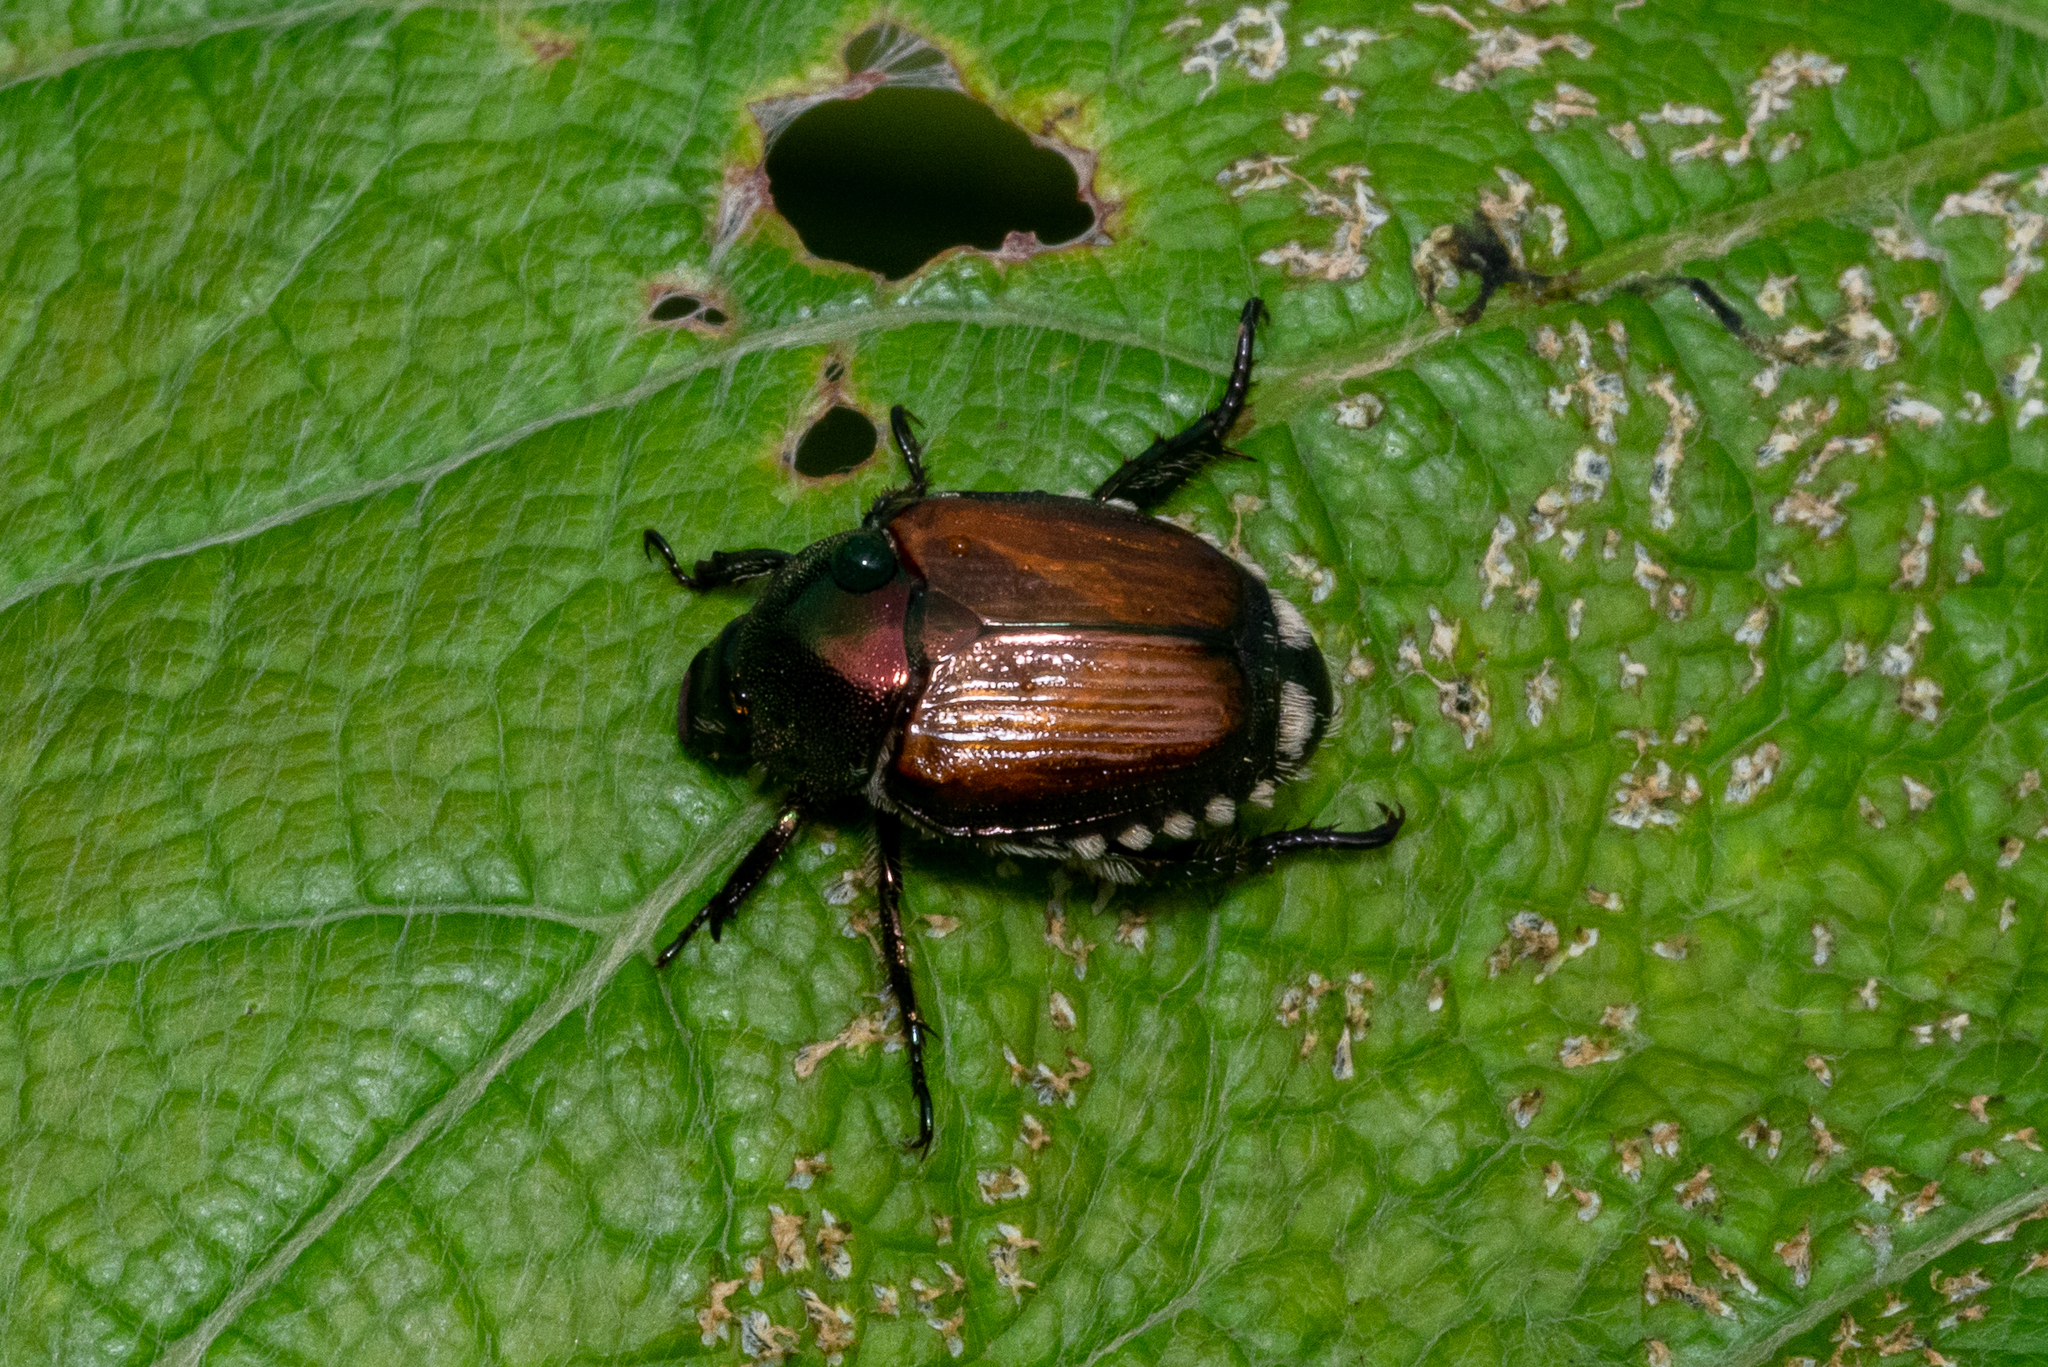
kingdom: Animalia
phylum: Arthropoda
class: Insecta
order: Coleoptera
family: Scarabaeidae
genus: Popillia
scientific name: Popillia japonica
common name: Japanese beetle
